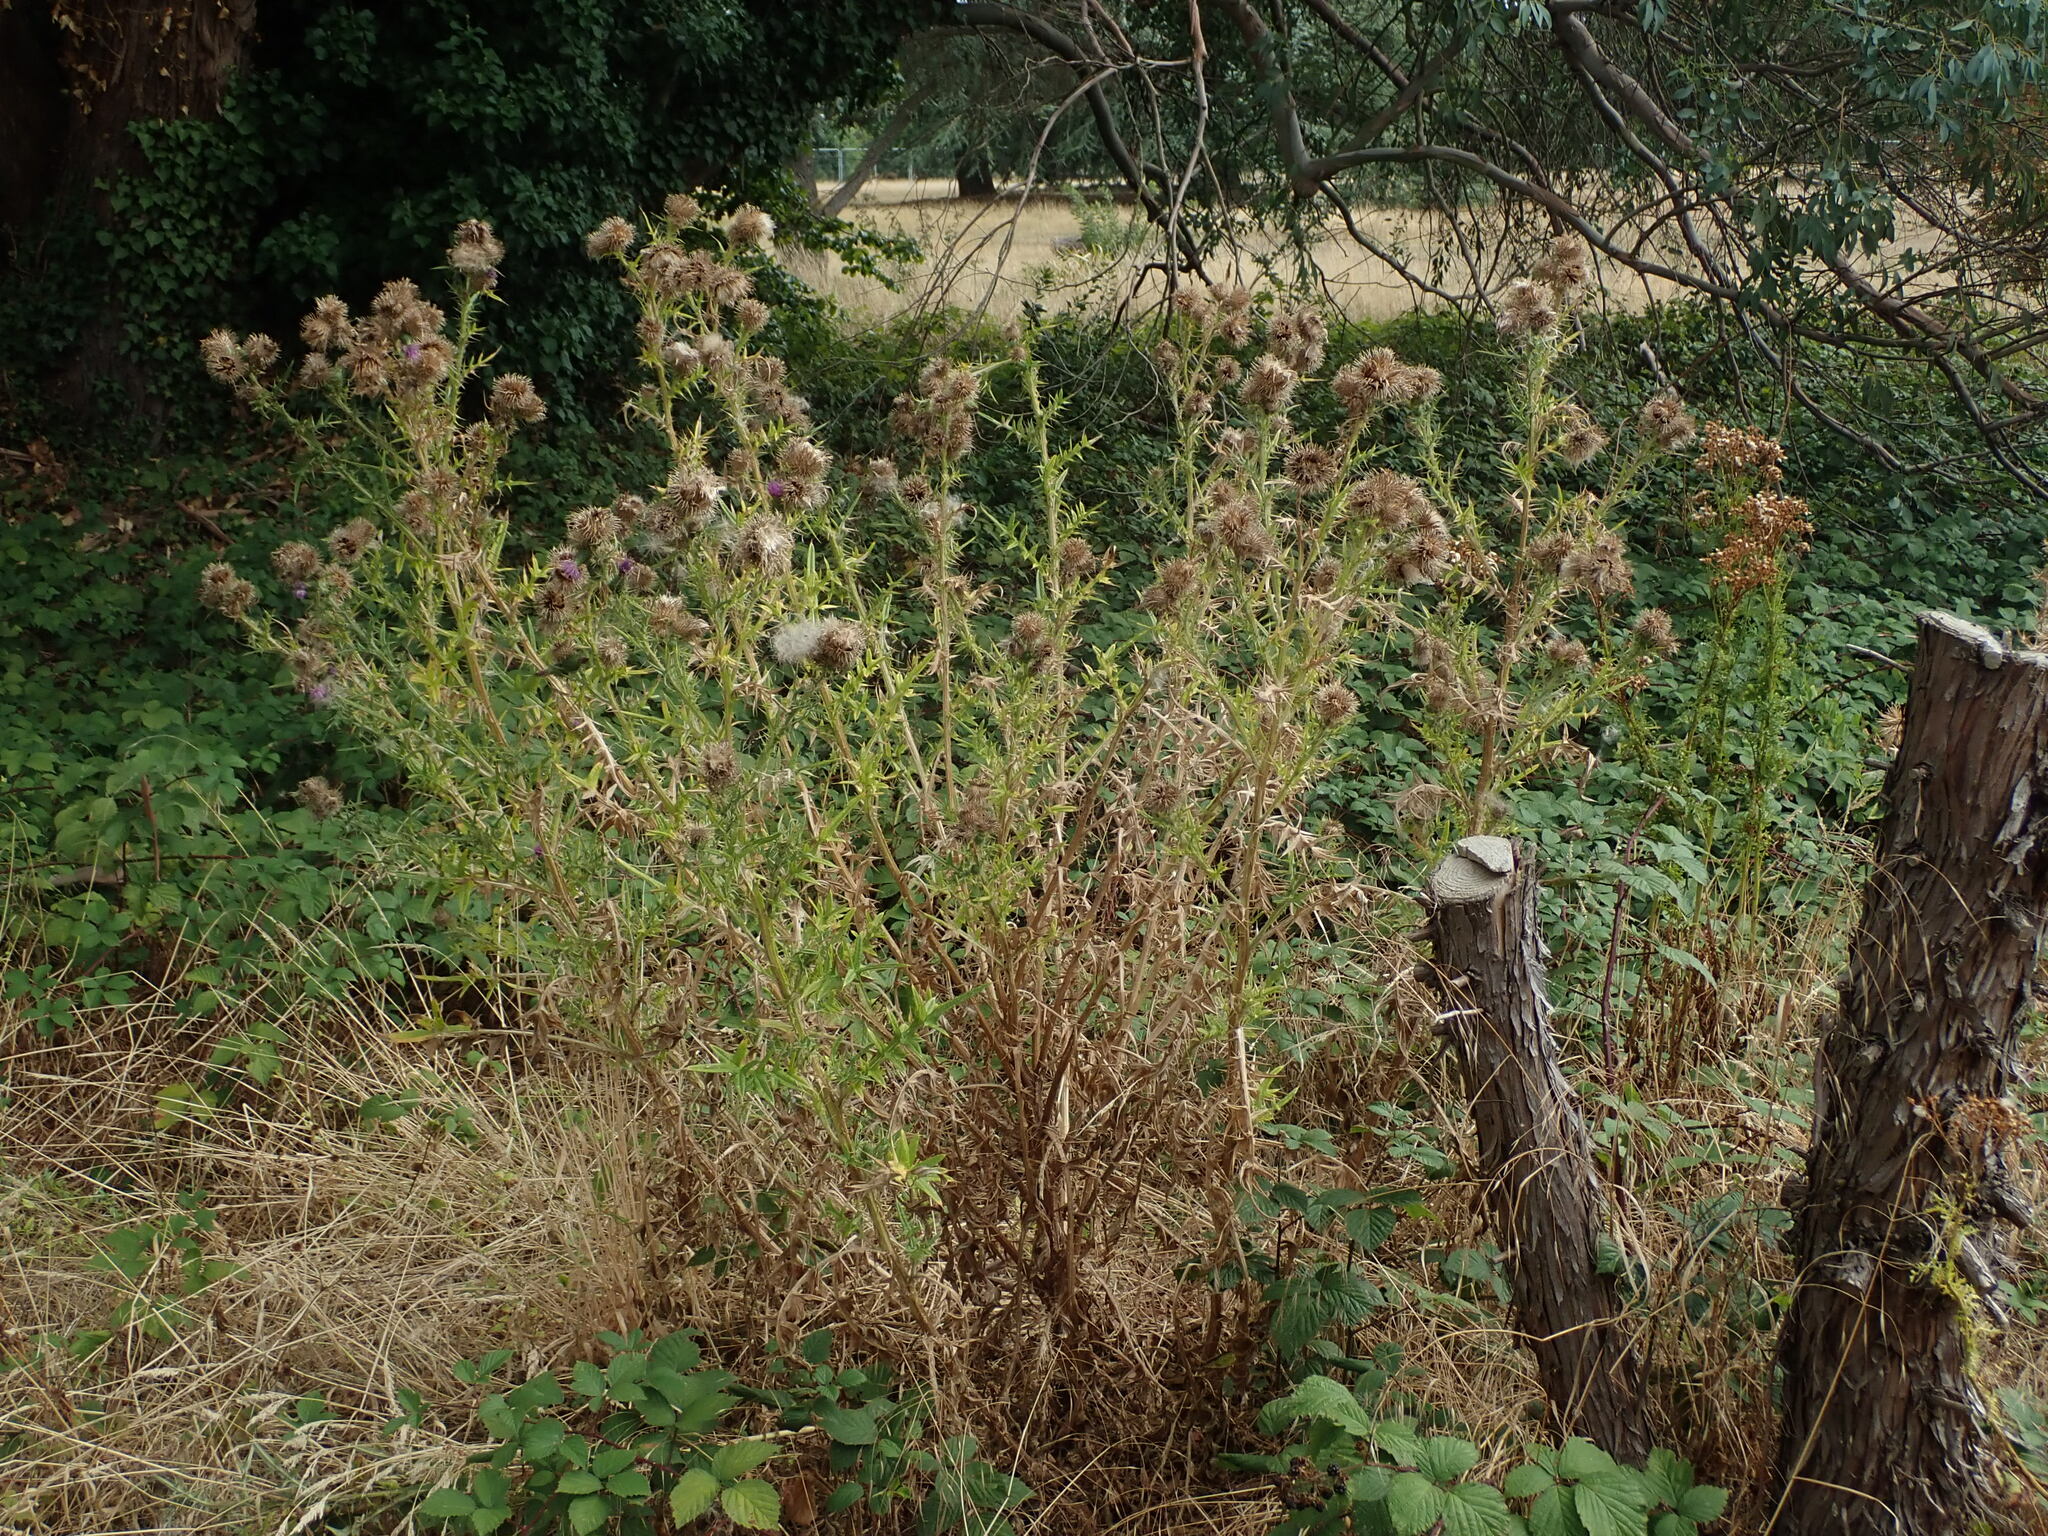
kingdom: Plantae
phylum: Tracheophyta
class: Magnoliopsida
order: Asterales
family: Asteraceae
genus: Cirsium
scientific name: Cirsium vulgare
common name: Bull thistle
